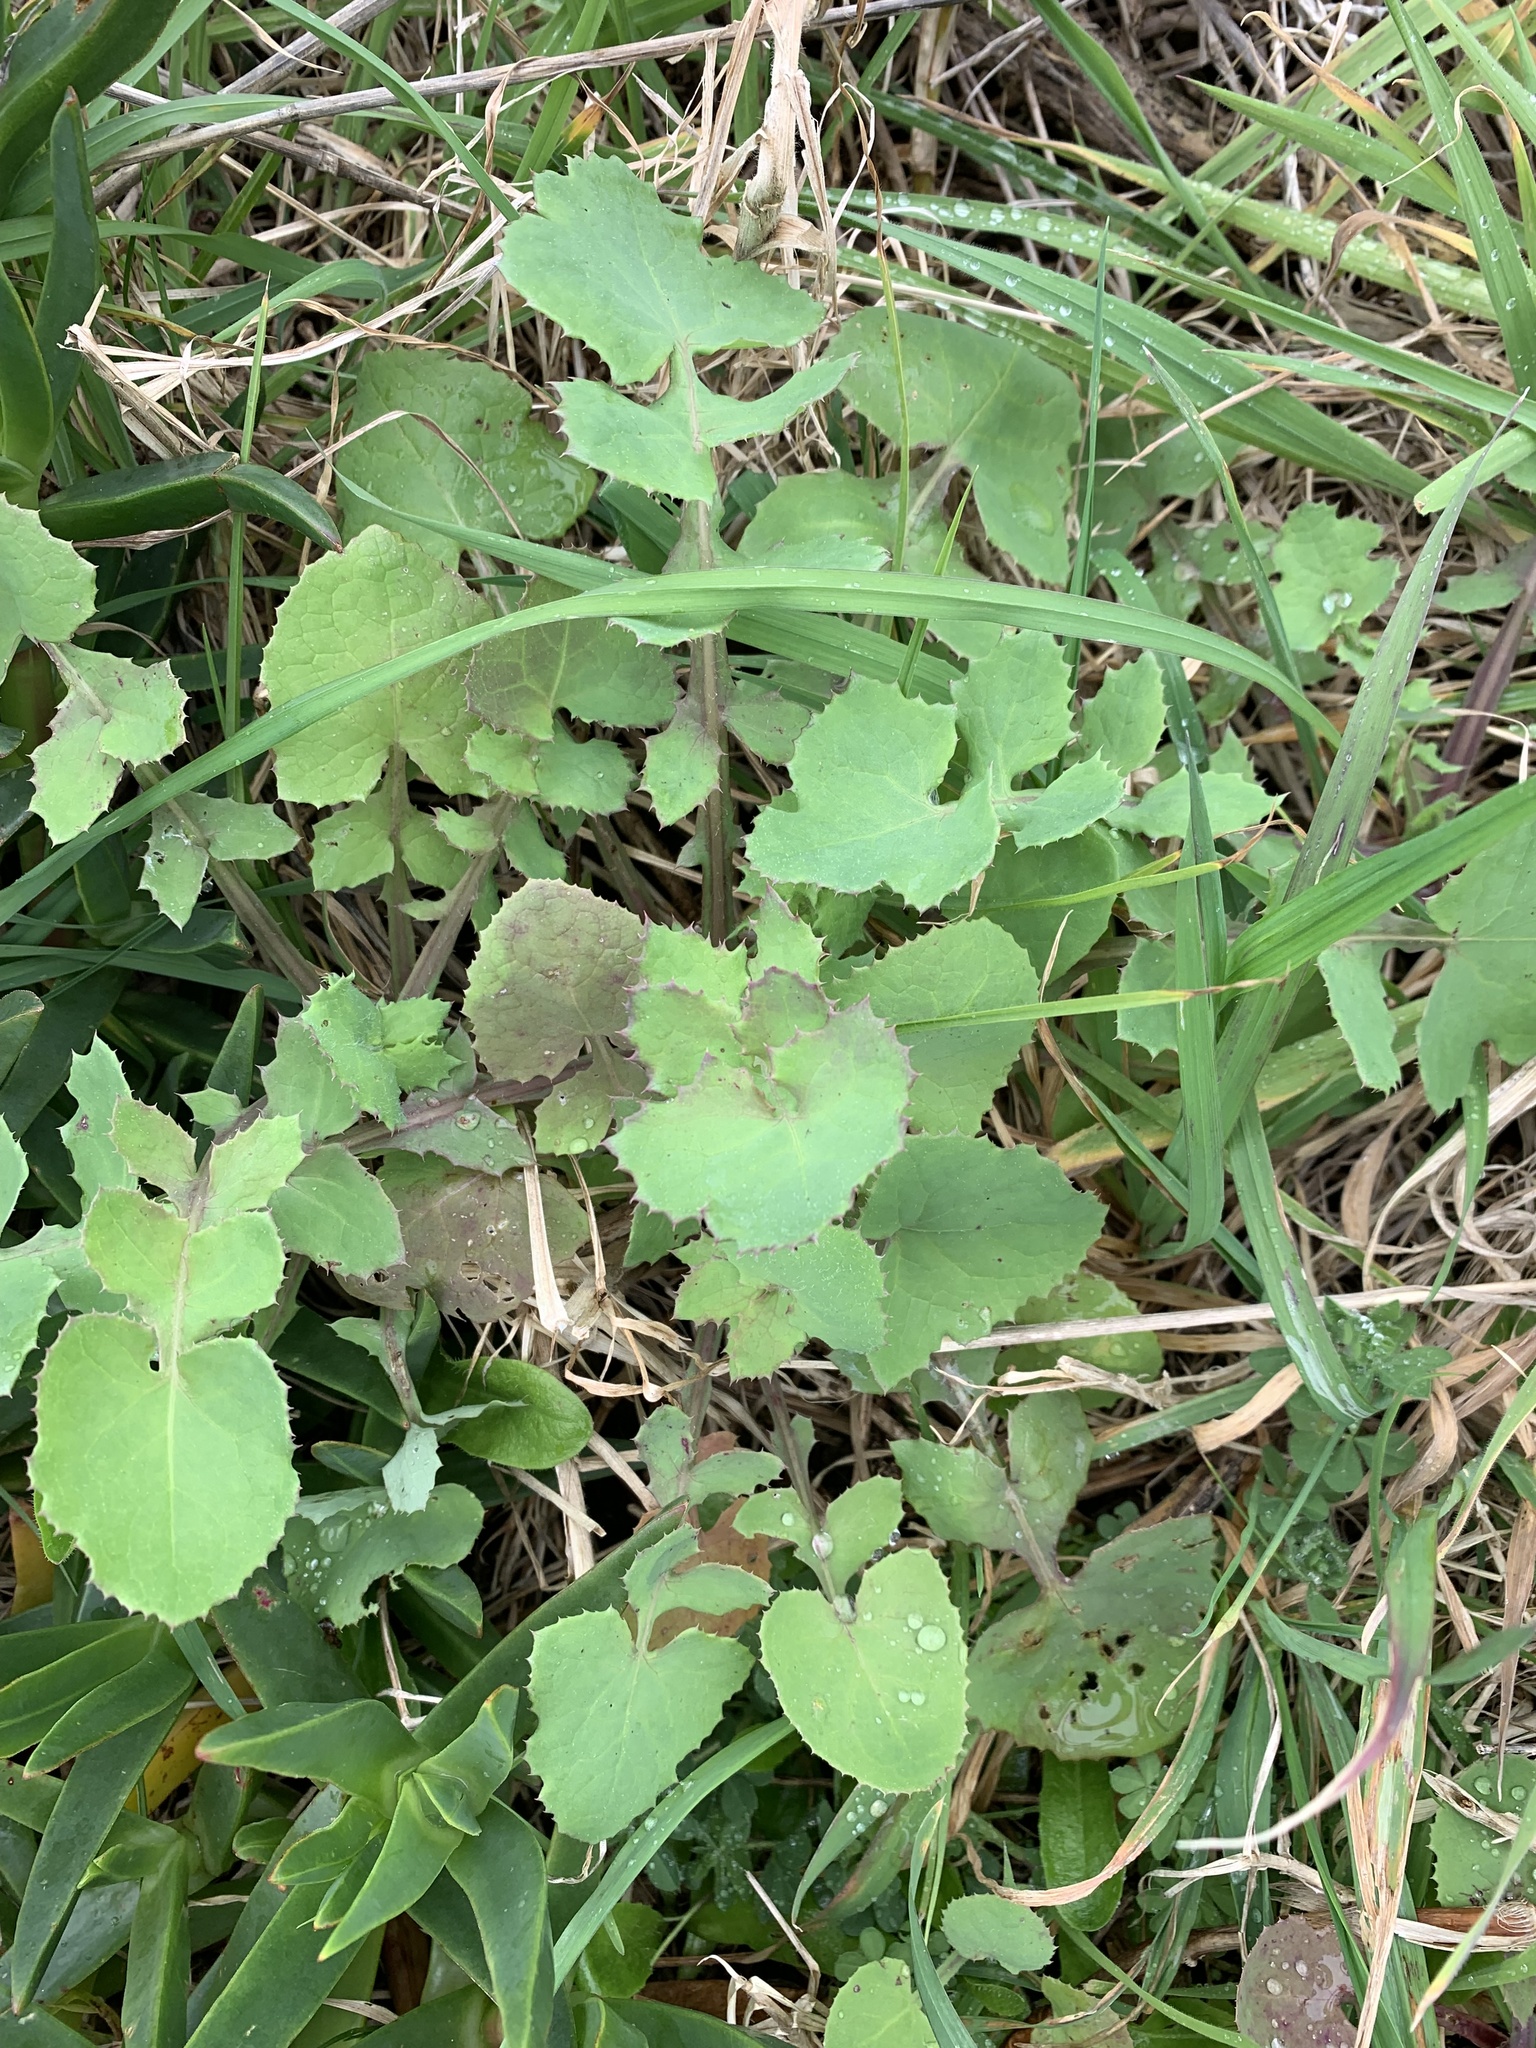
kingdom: Plantae
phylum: Tracheophyta
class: Magnoliopsida
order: Asterales
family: Asteraceae
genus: Sonchus
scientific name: Sonchus oleraceus
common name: Common sowthistle
